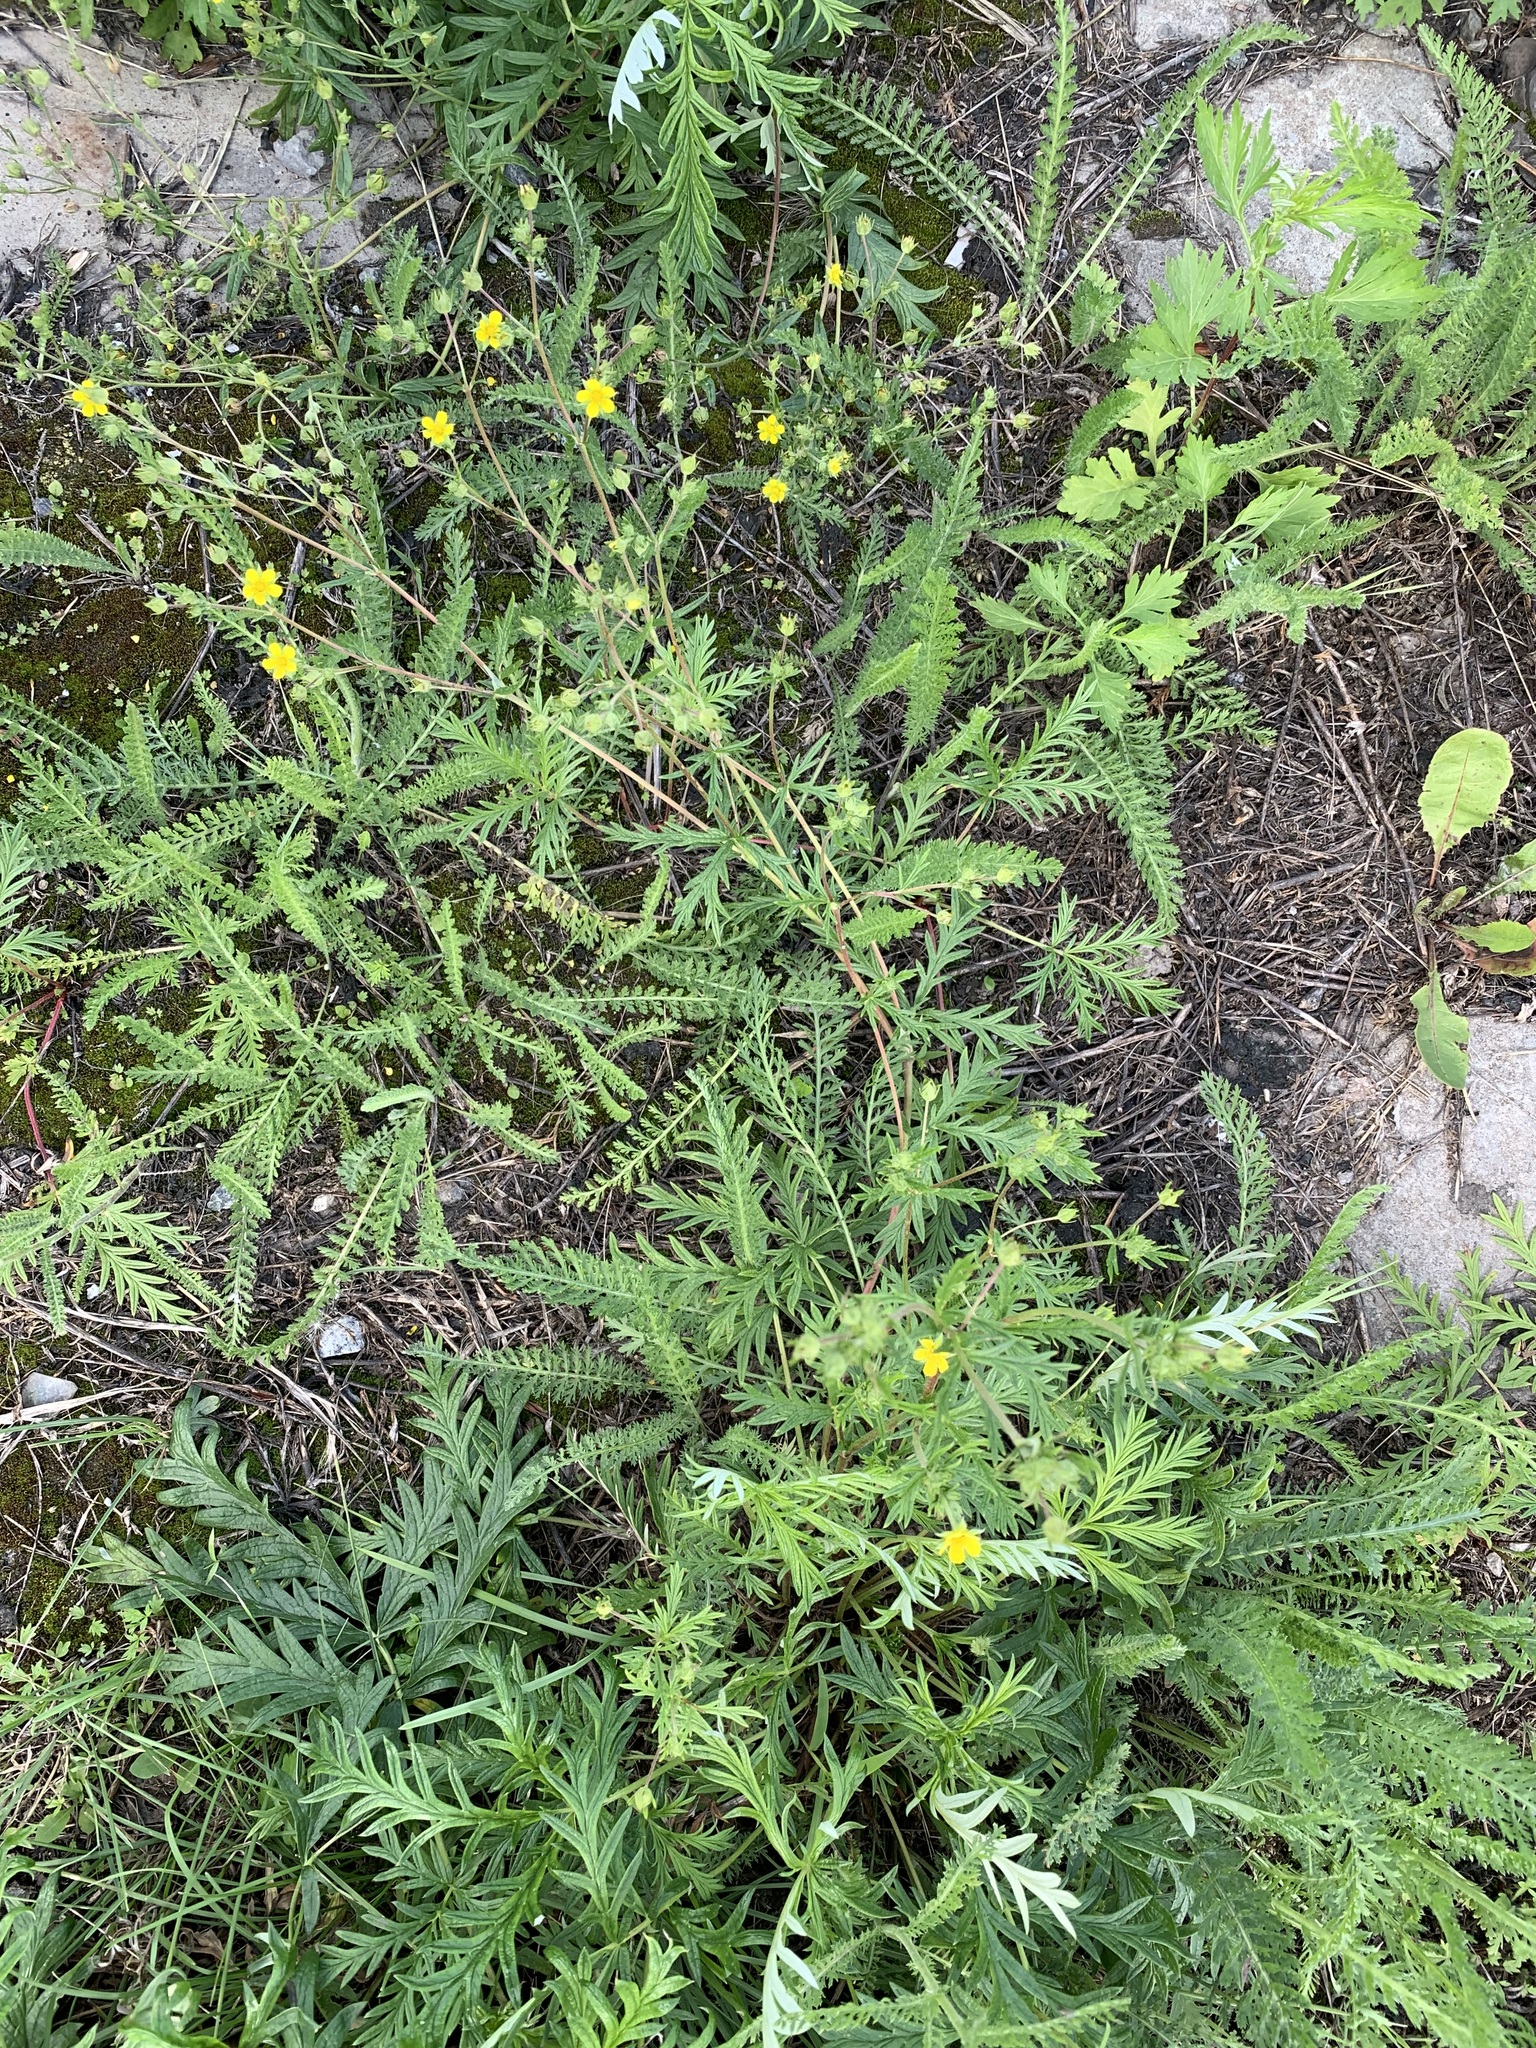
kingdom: Plantae
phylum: Tracheophyta
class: Magnoliopsida
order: Rosales
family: Rosaceae
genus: Potentilla
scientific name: Potentilla
